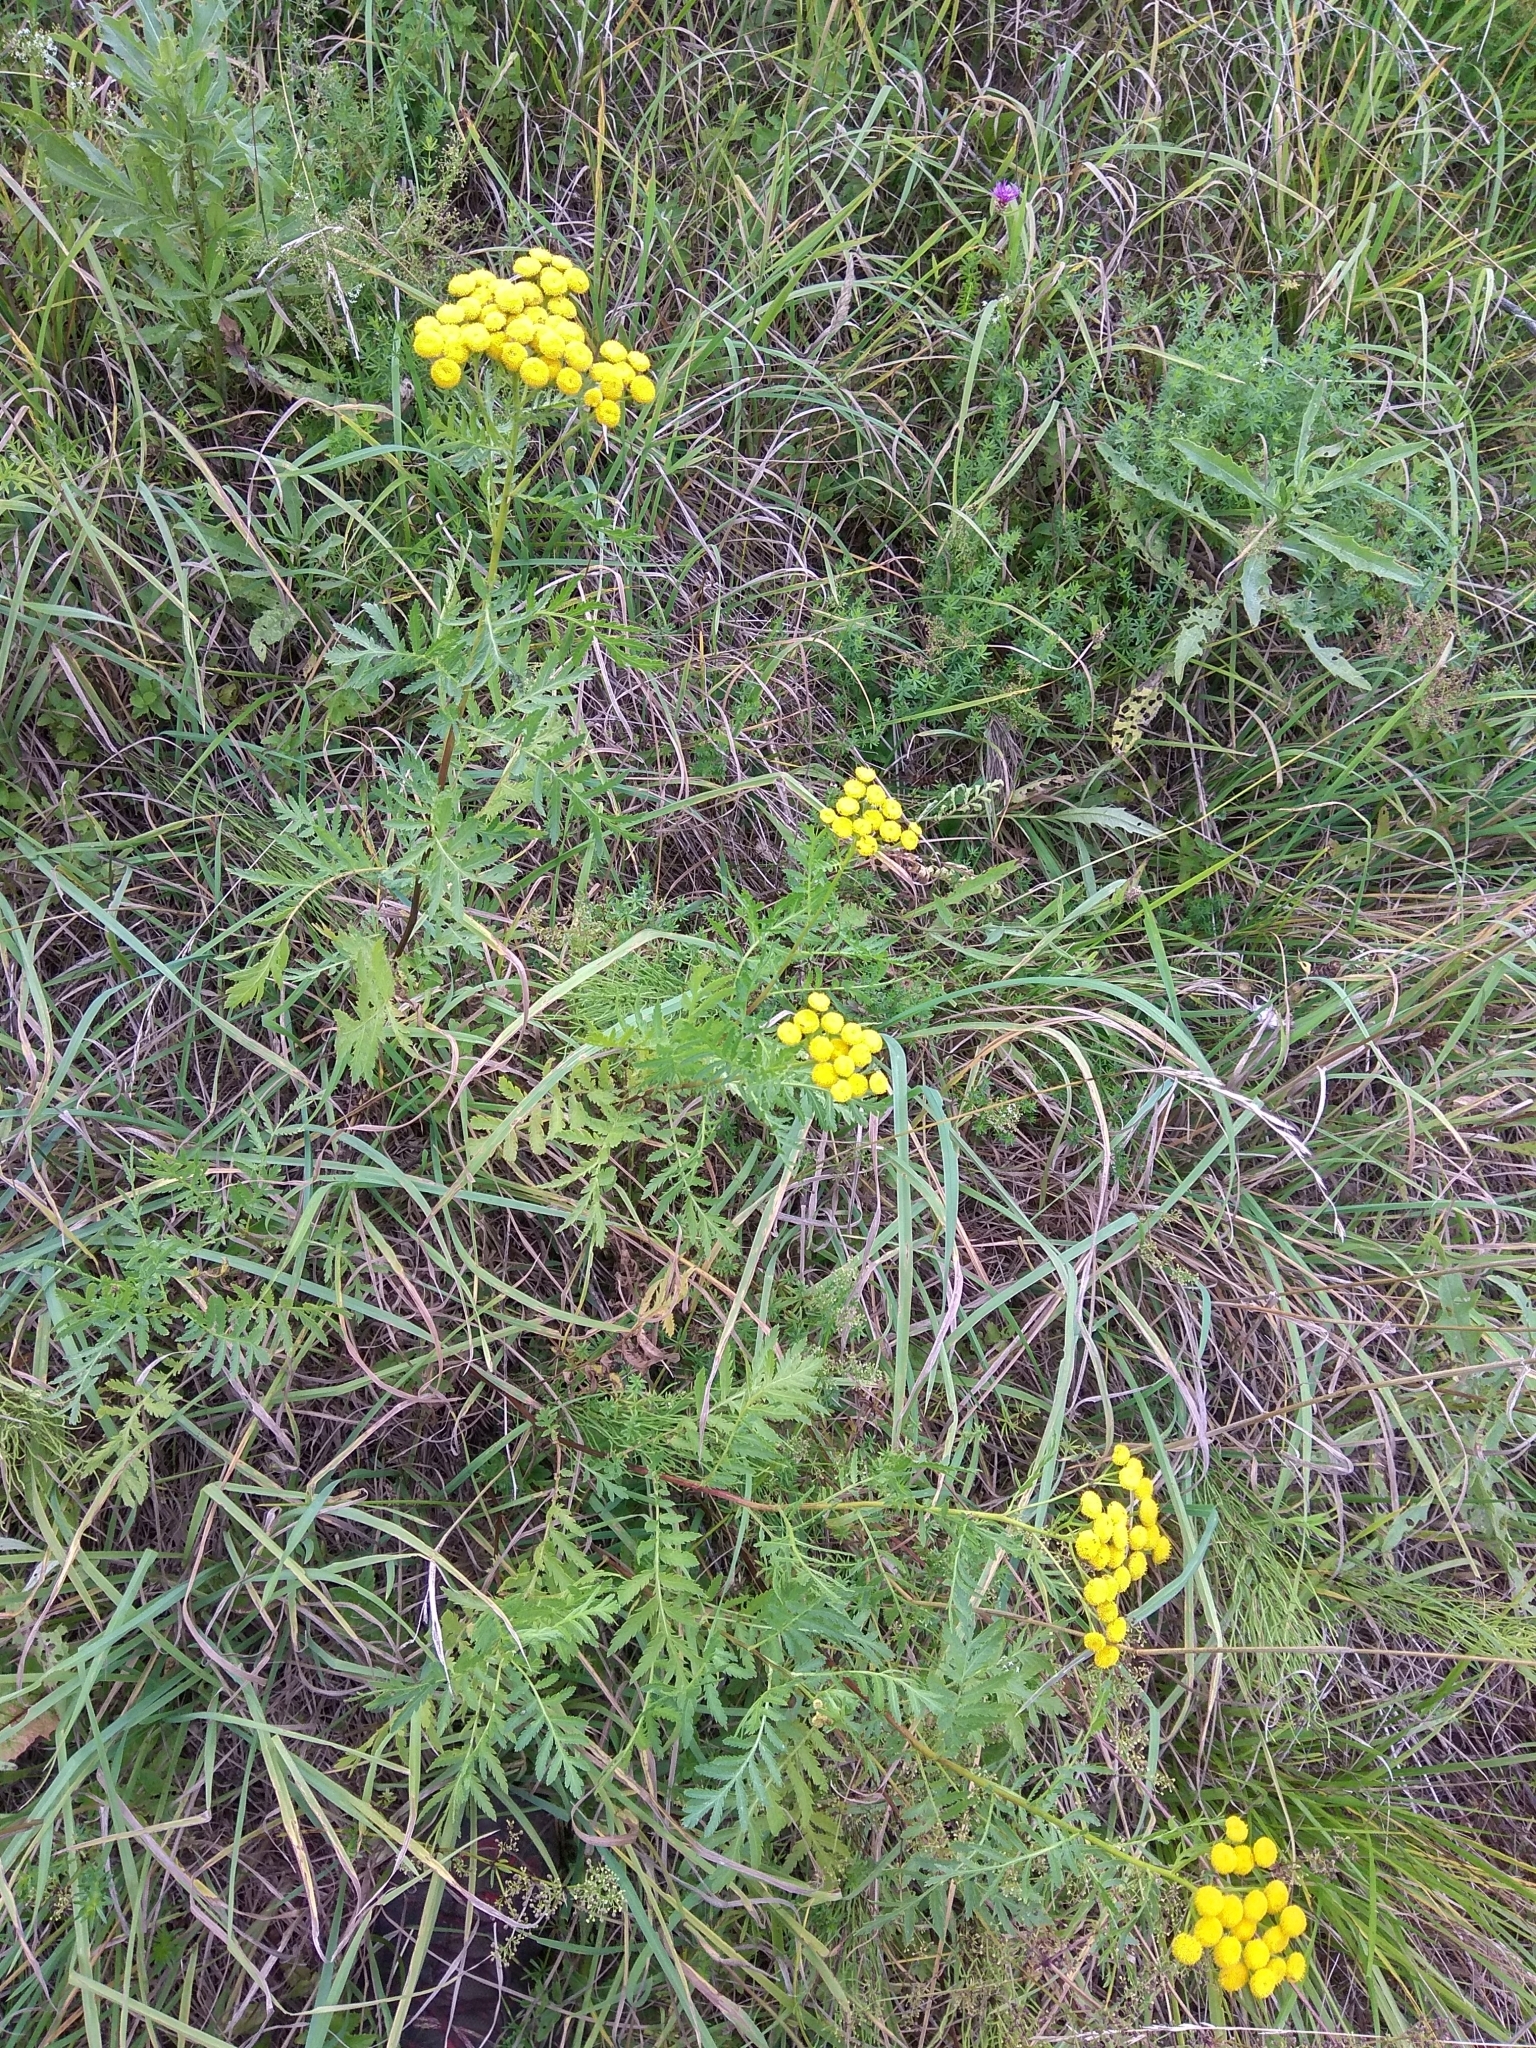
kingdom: Plantae
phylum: Tracheophyta
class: Magnoliopsida
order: Asterales
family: Asteraceae
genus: Tanacetum
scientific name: Tanacetum vulgare
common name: Common tansy
